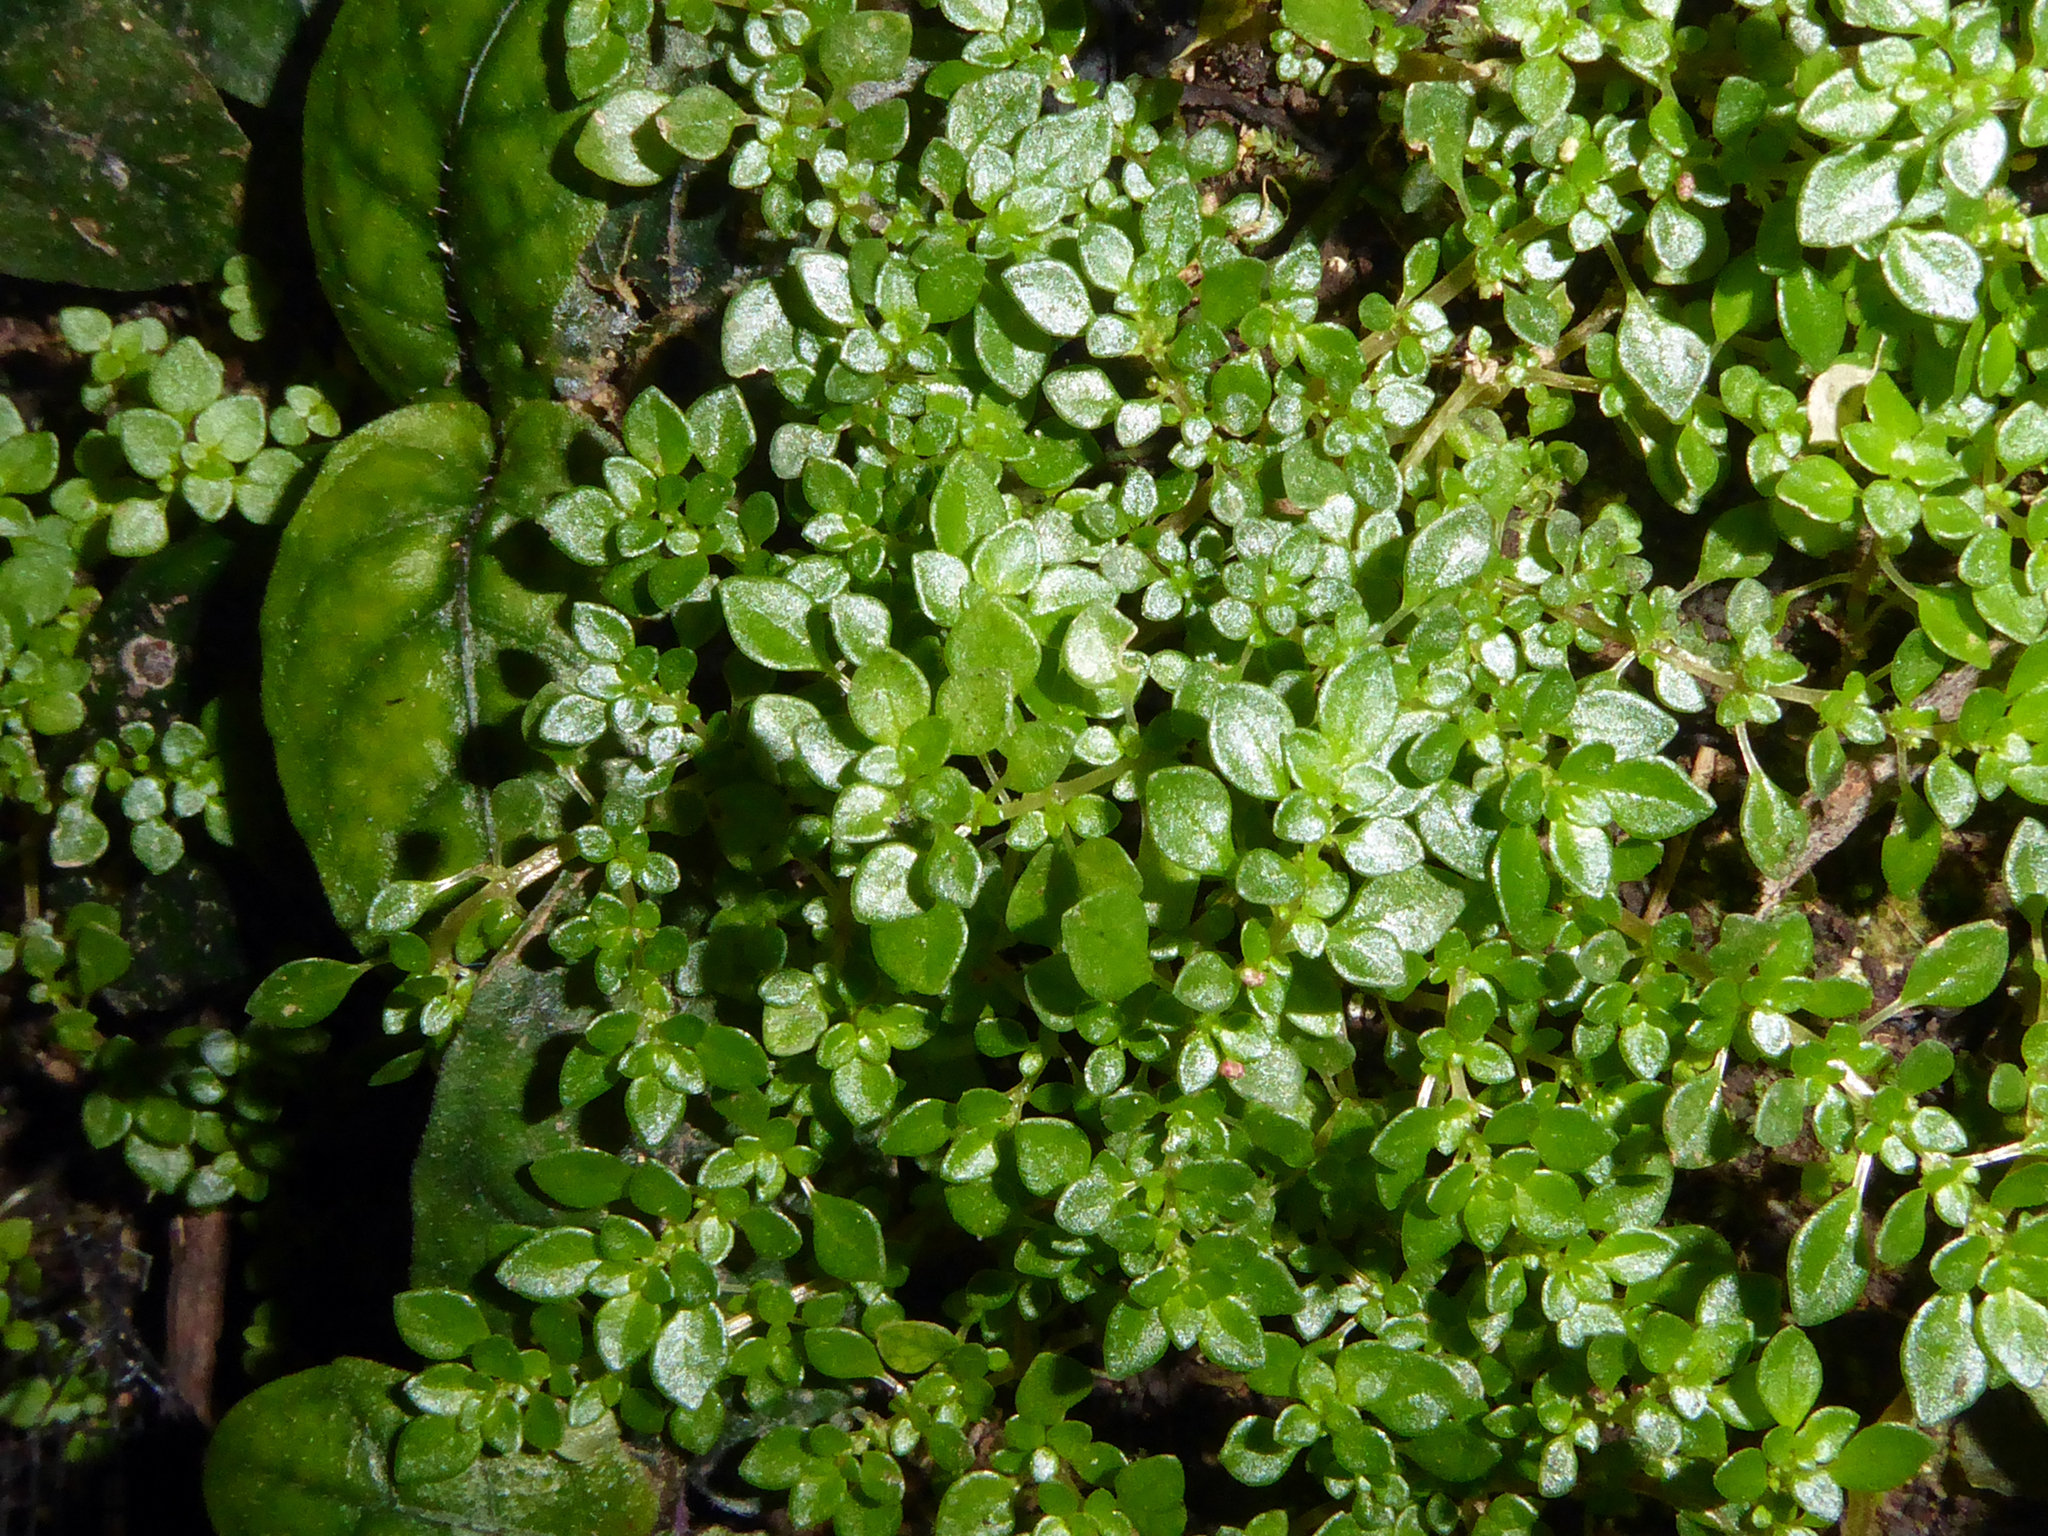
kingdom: Plantae
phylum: Tracheophyta
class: Magnoliopsida
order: Rosales
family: Urticaceae
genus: Pilea
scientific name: Pilea microphylla
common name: Artillery-plant
